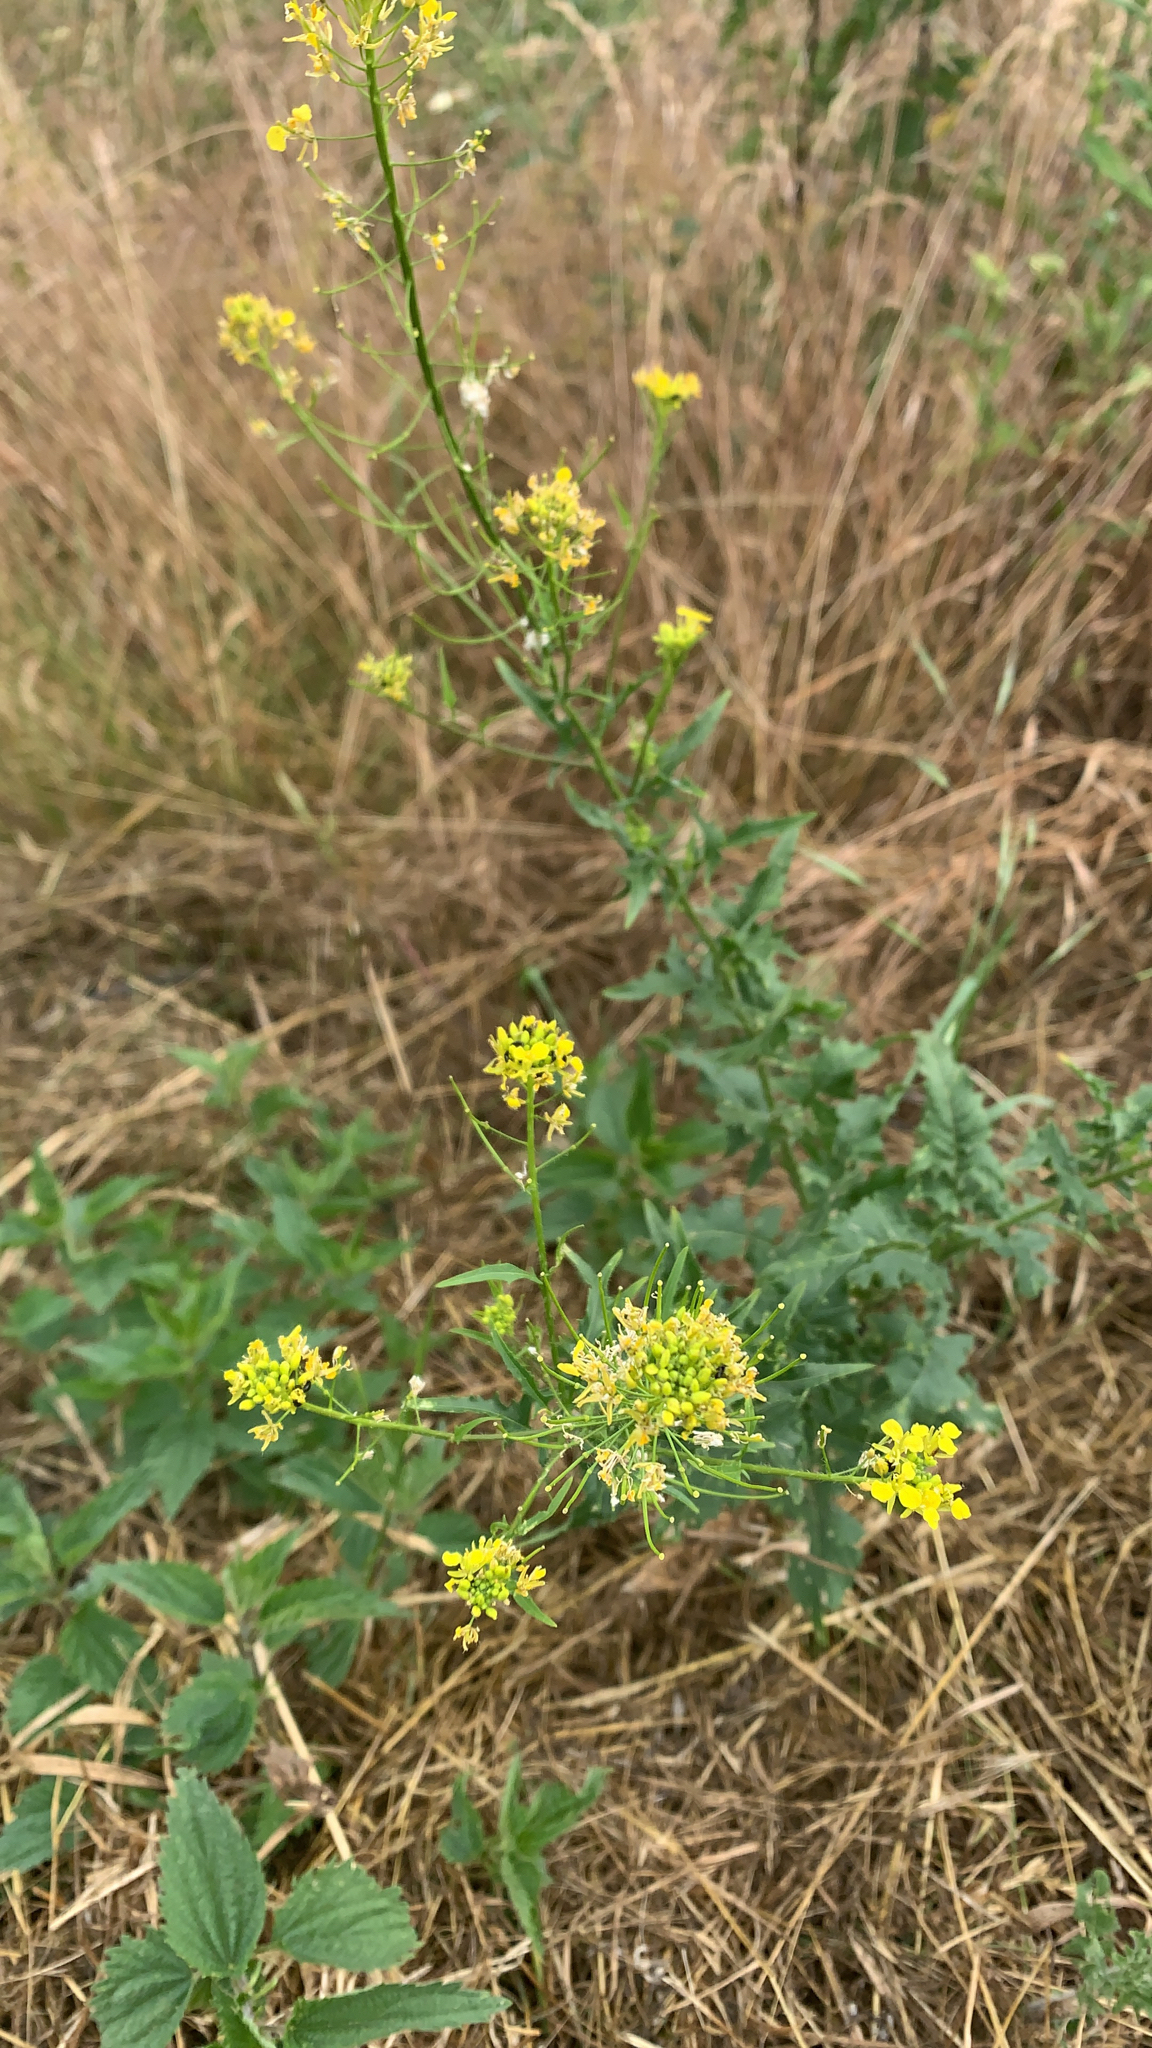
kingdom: Plantae
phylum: Tracheophyta
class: Magnoliopsida
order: Brassicales
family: Brassicaceae
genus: Sisymbrium
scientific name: Sisymbrium loeselii
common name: False london-rocket
